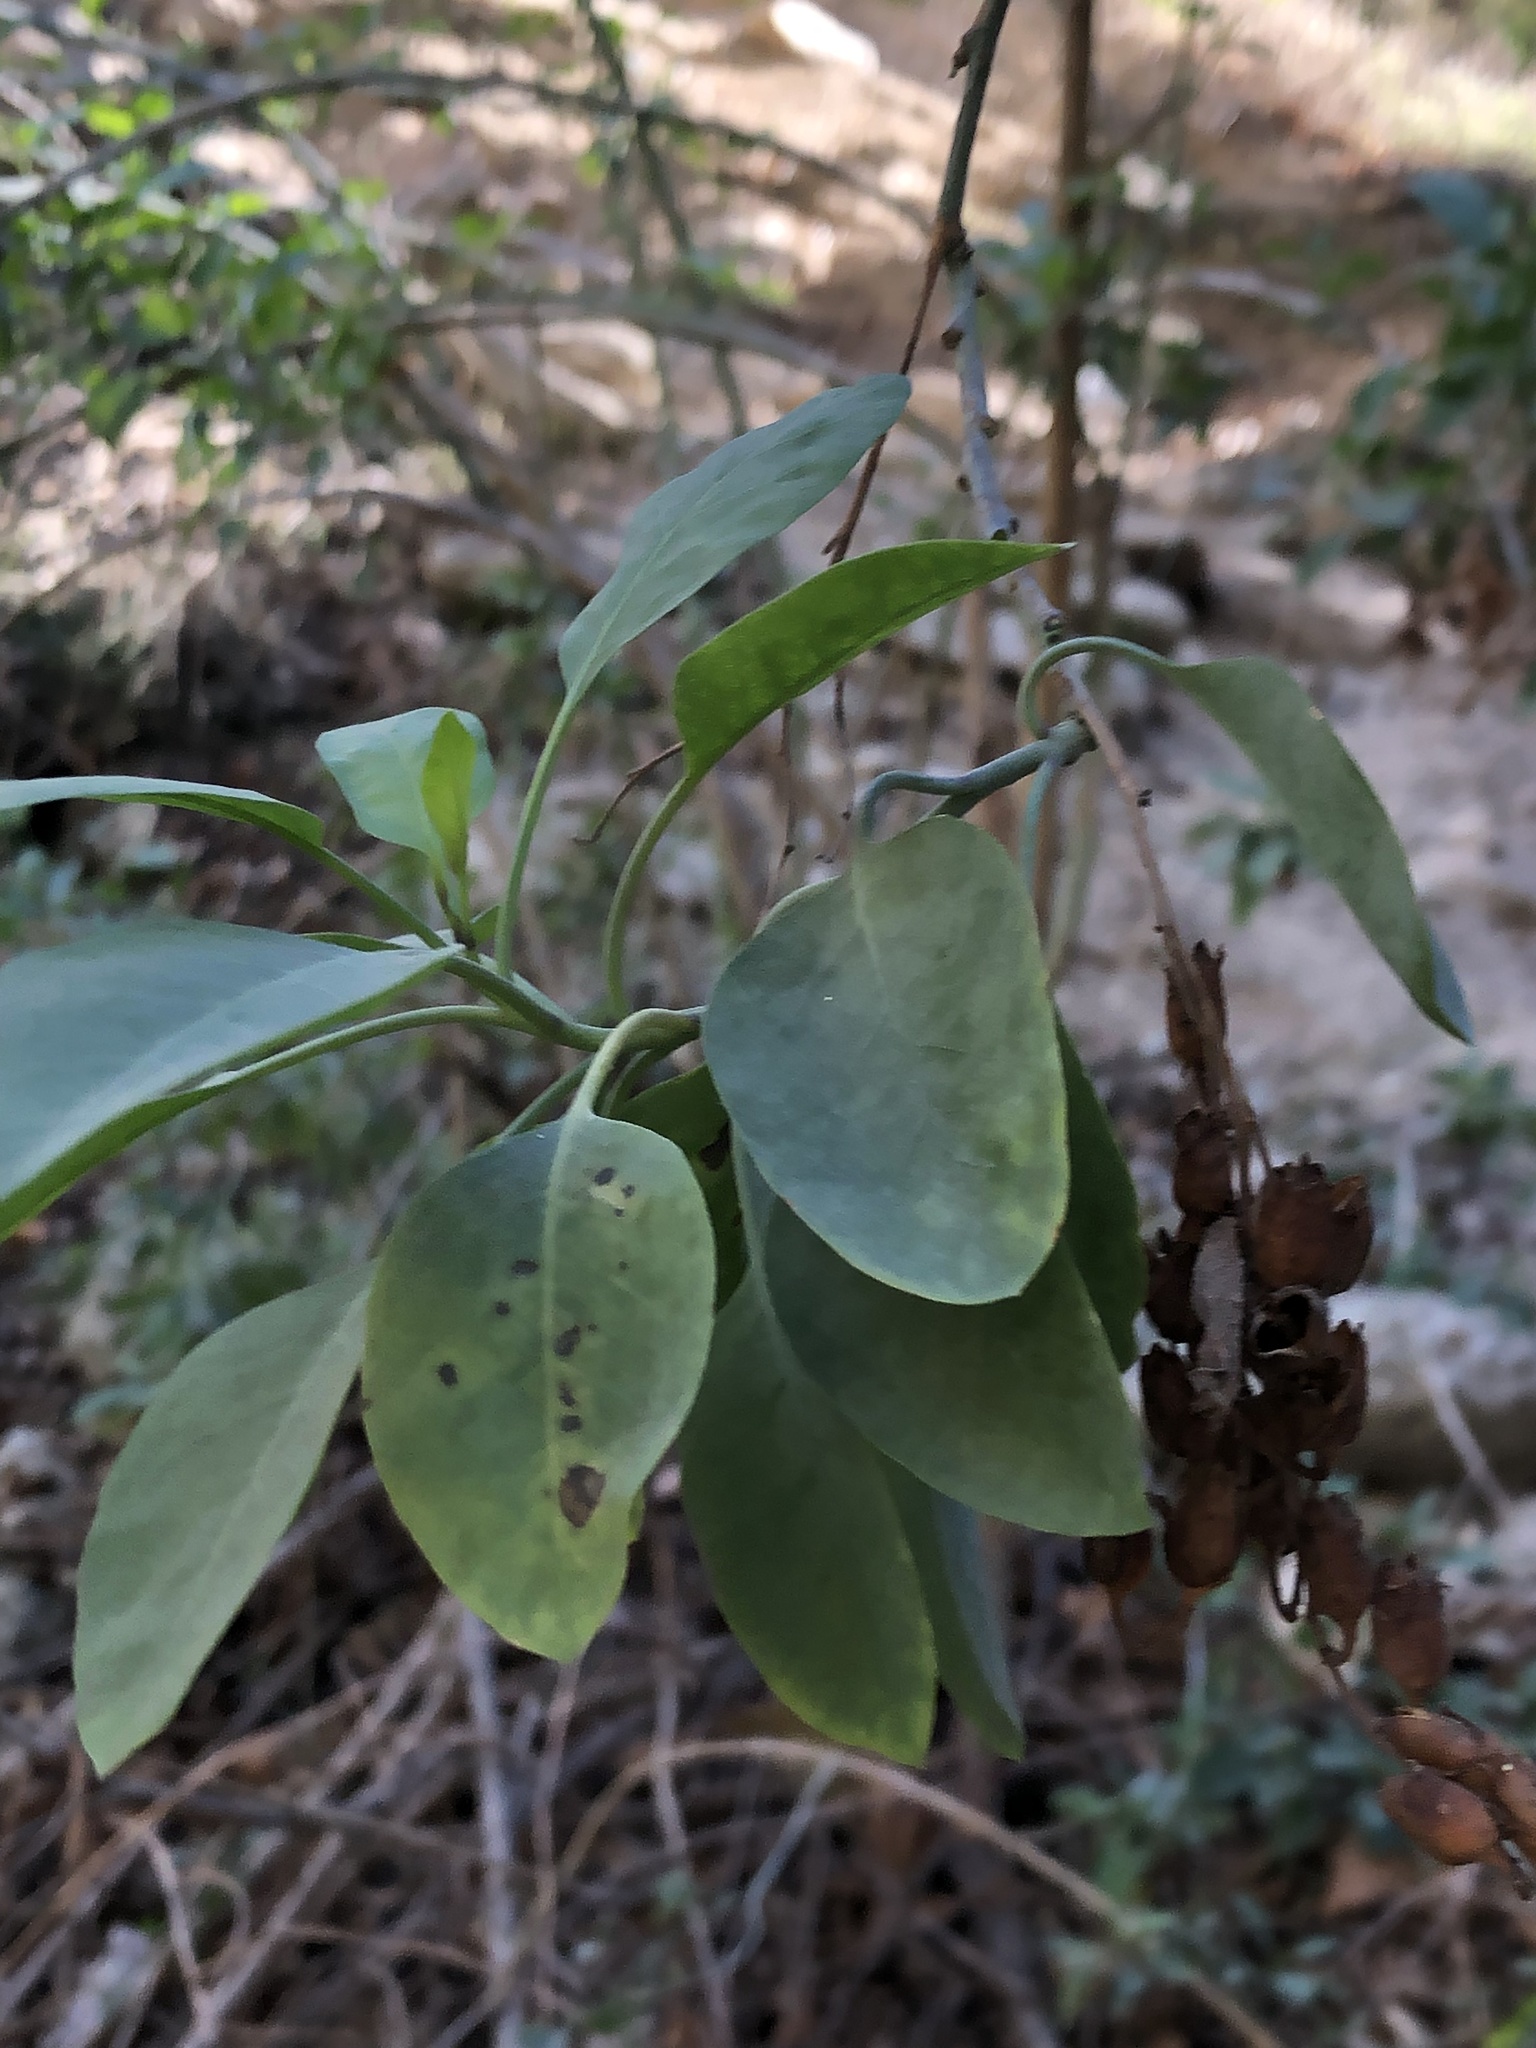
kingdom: Plantae
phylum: Tracheophyta
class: Magnoliopsida
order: Solanales
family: Solanaceae
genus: Nicotiana
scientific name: Nicotiana glauca
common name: Tree tobacco
